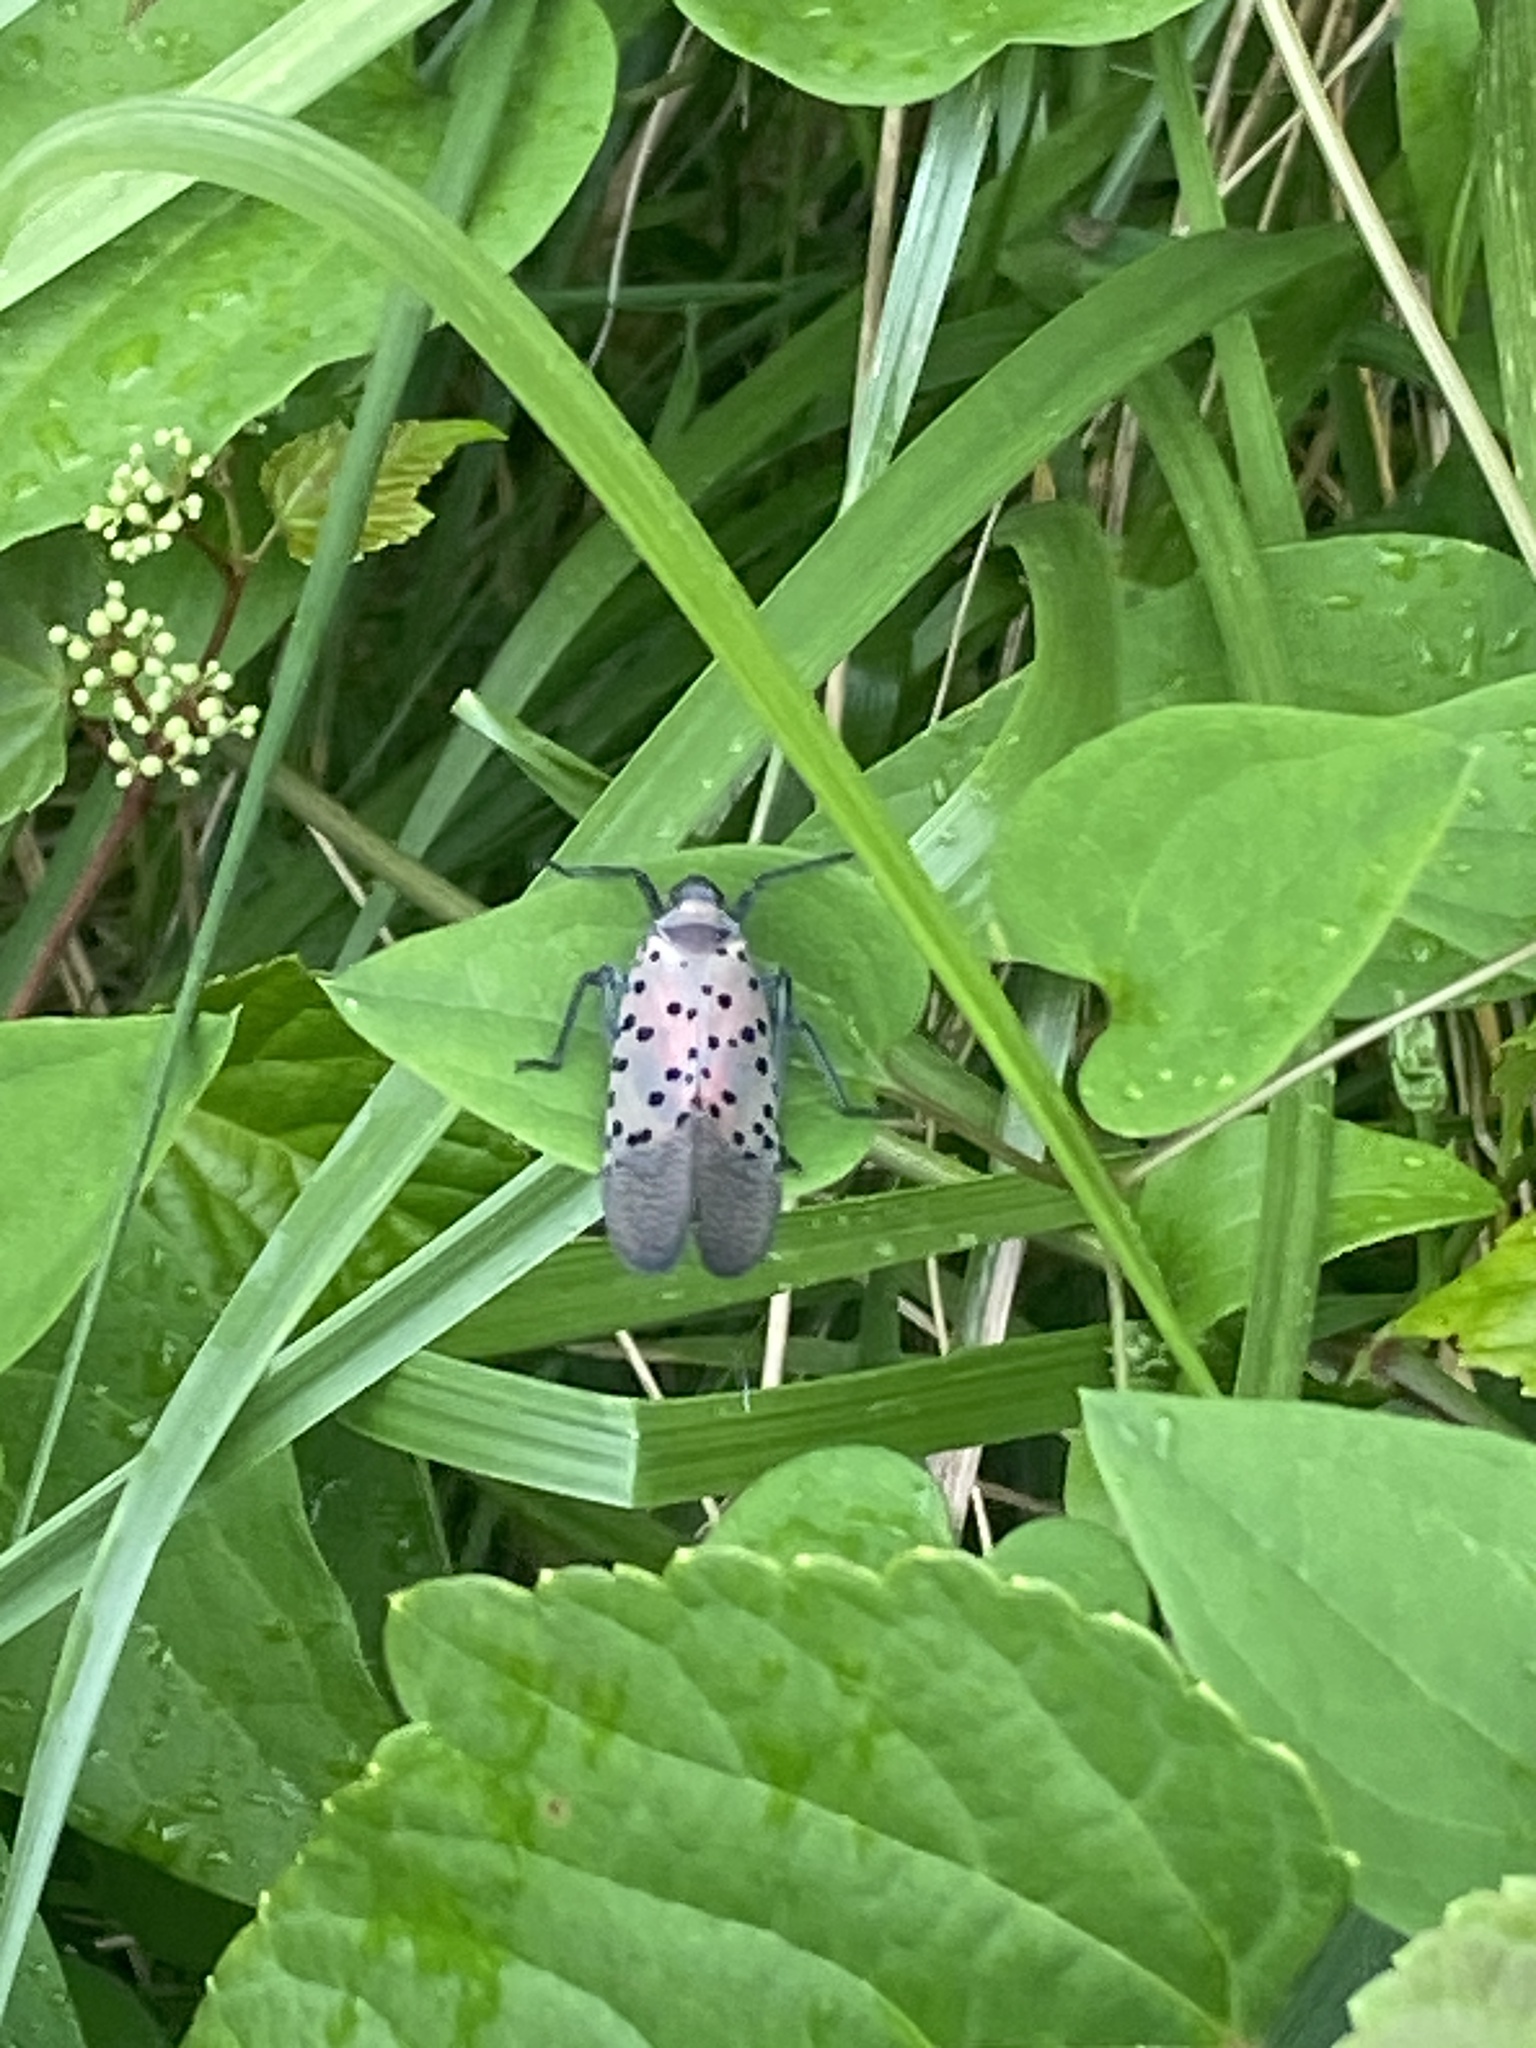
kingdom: Animalia
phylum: Arthropoda
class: Insecta
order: Hemiptera
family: Fulgoridae
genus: Lycorma
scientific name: Lycorma delicatula
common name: Spotted lanternfly
